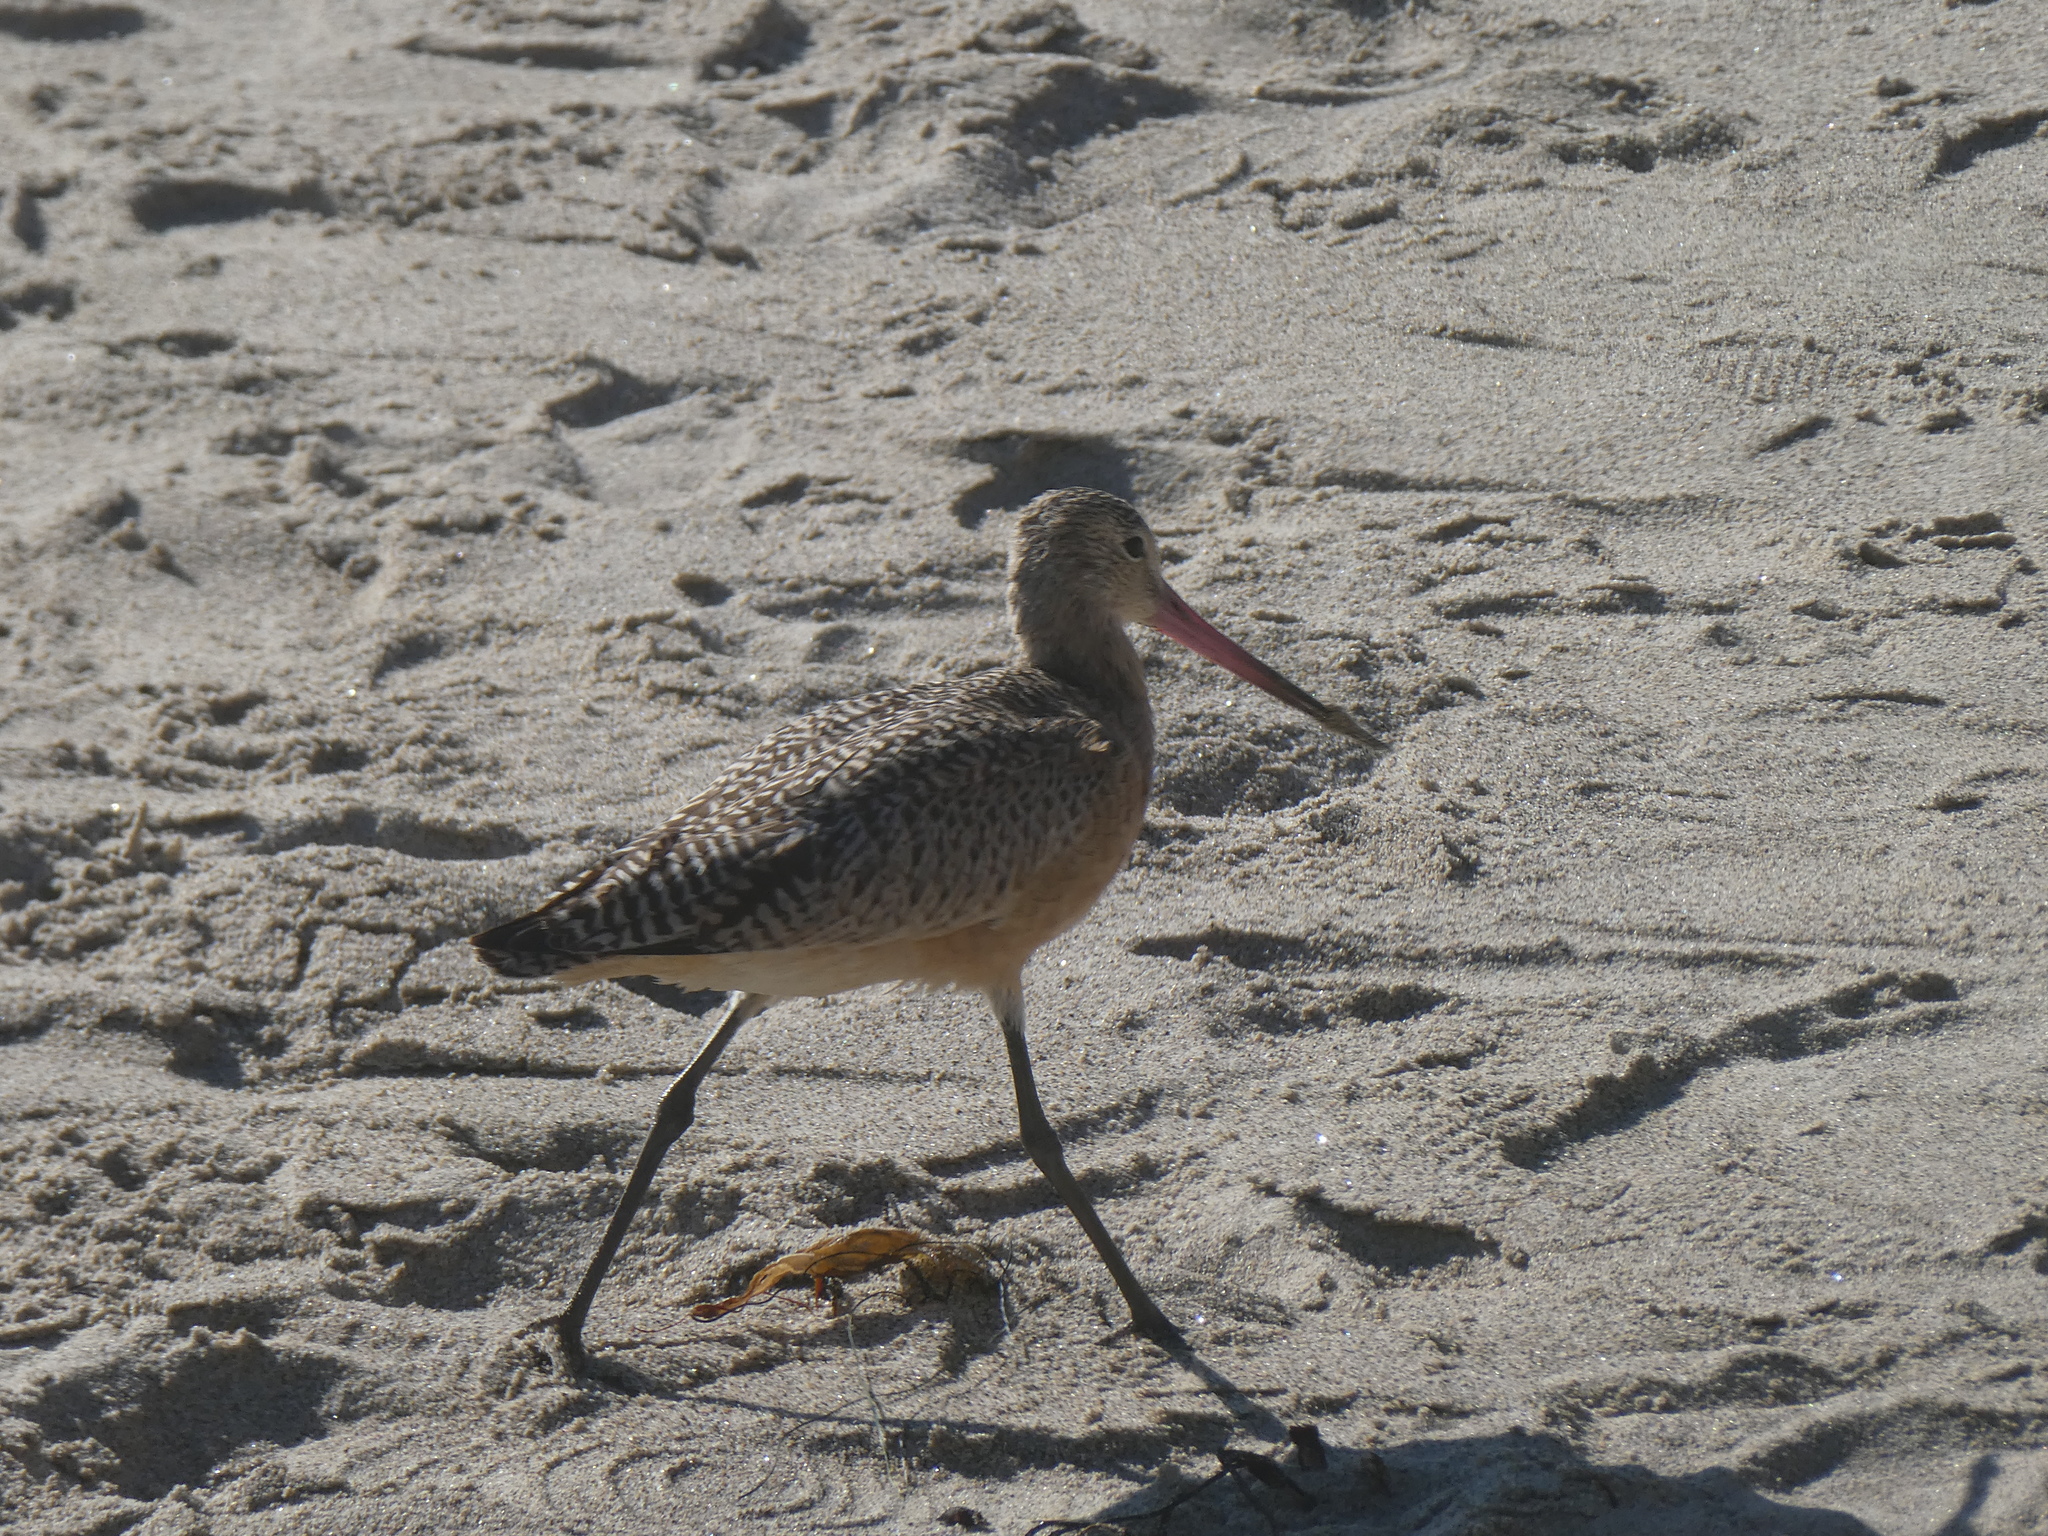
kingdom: Animalia
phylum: Chordata
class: Aves
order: Charadriiformes
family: Scolopacidae
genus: Limosa
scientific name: Limosa fedoa
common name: Marbled godwit
